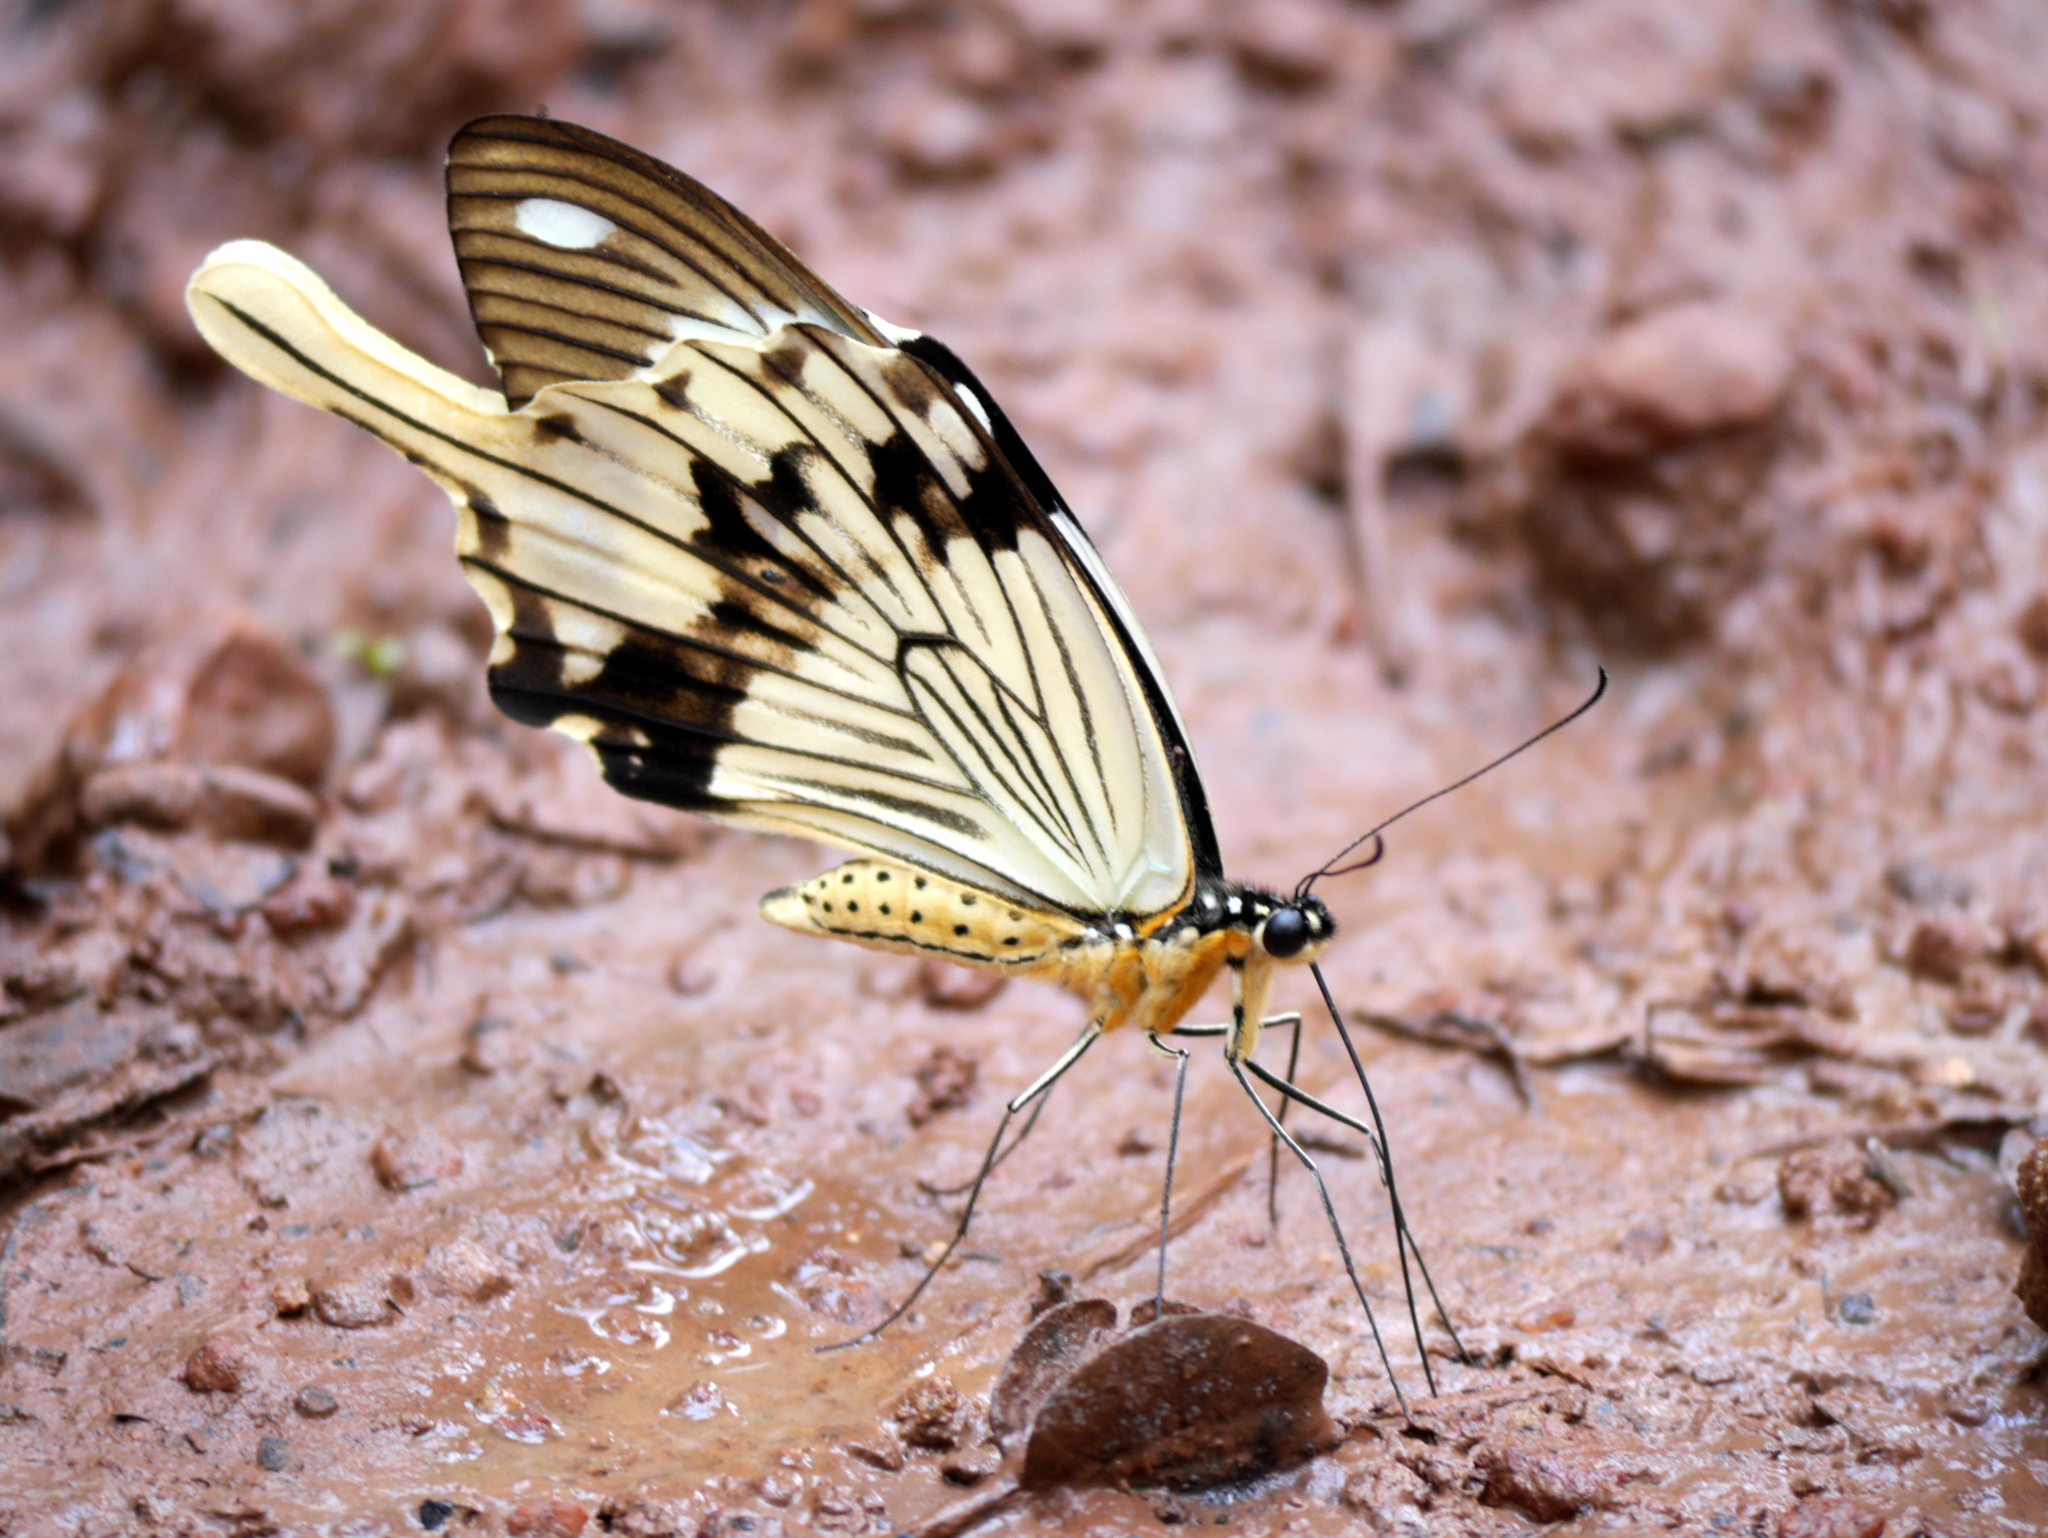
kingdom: Animalia
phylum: Arthropoda
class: Insecta
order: Lepidoptera
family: Papilionidae
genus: Papilio
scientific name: Papilio dardanus
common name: Flying handkerchief
